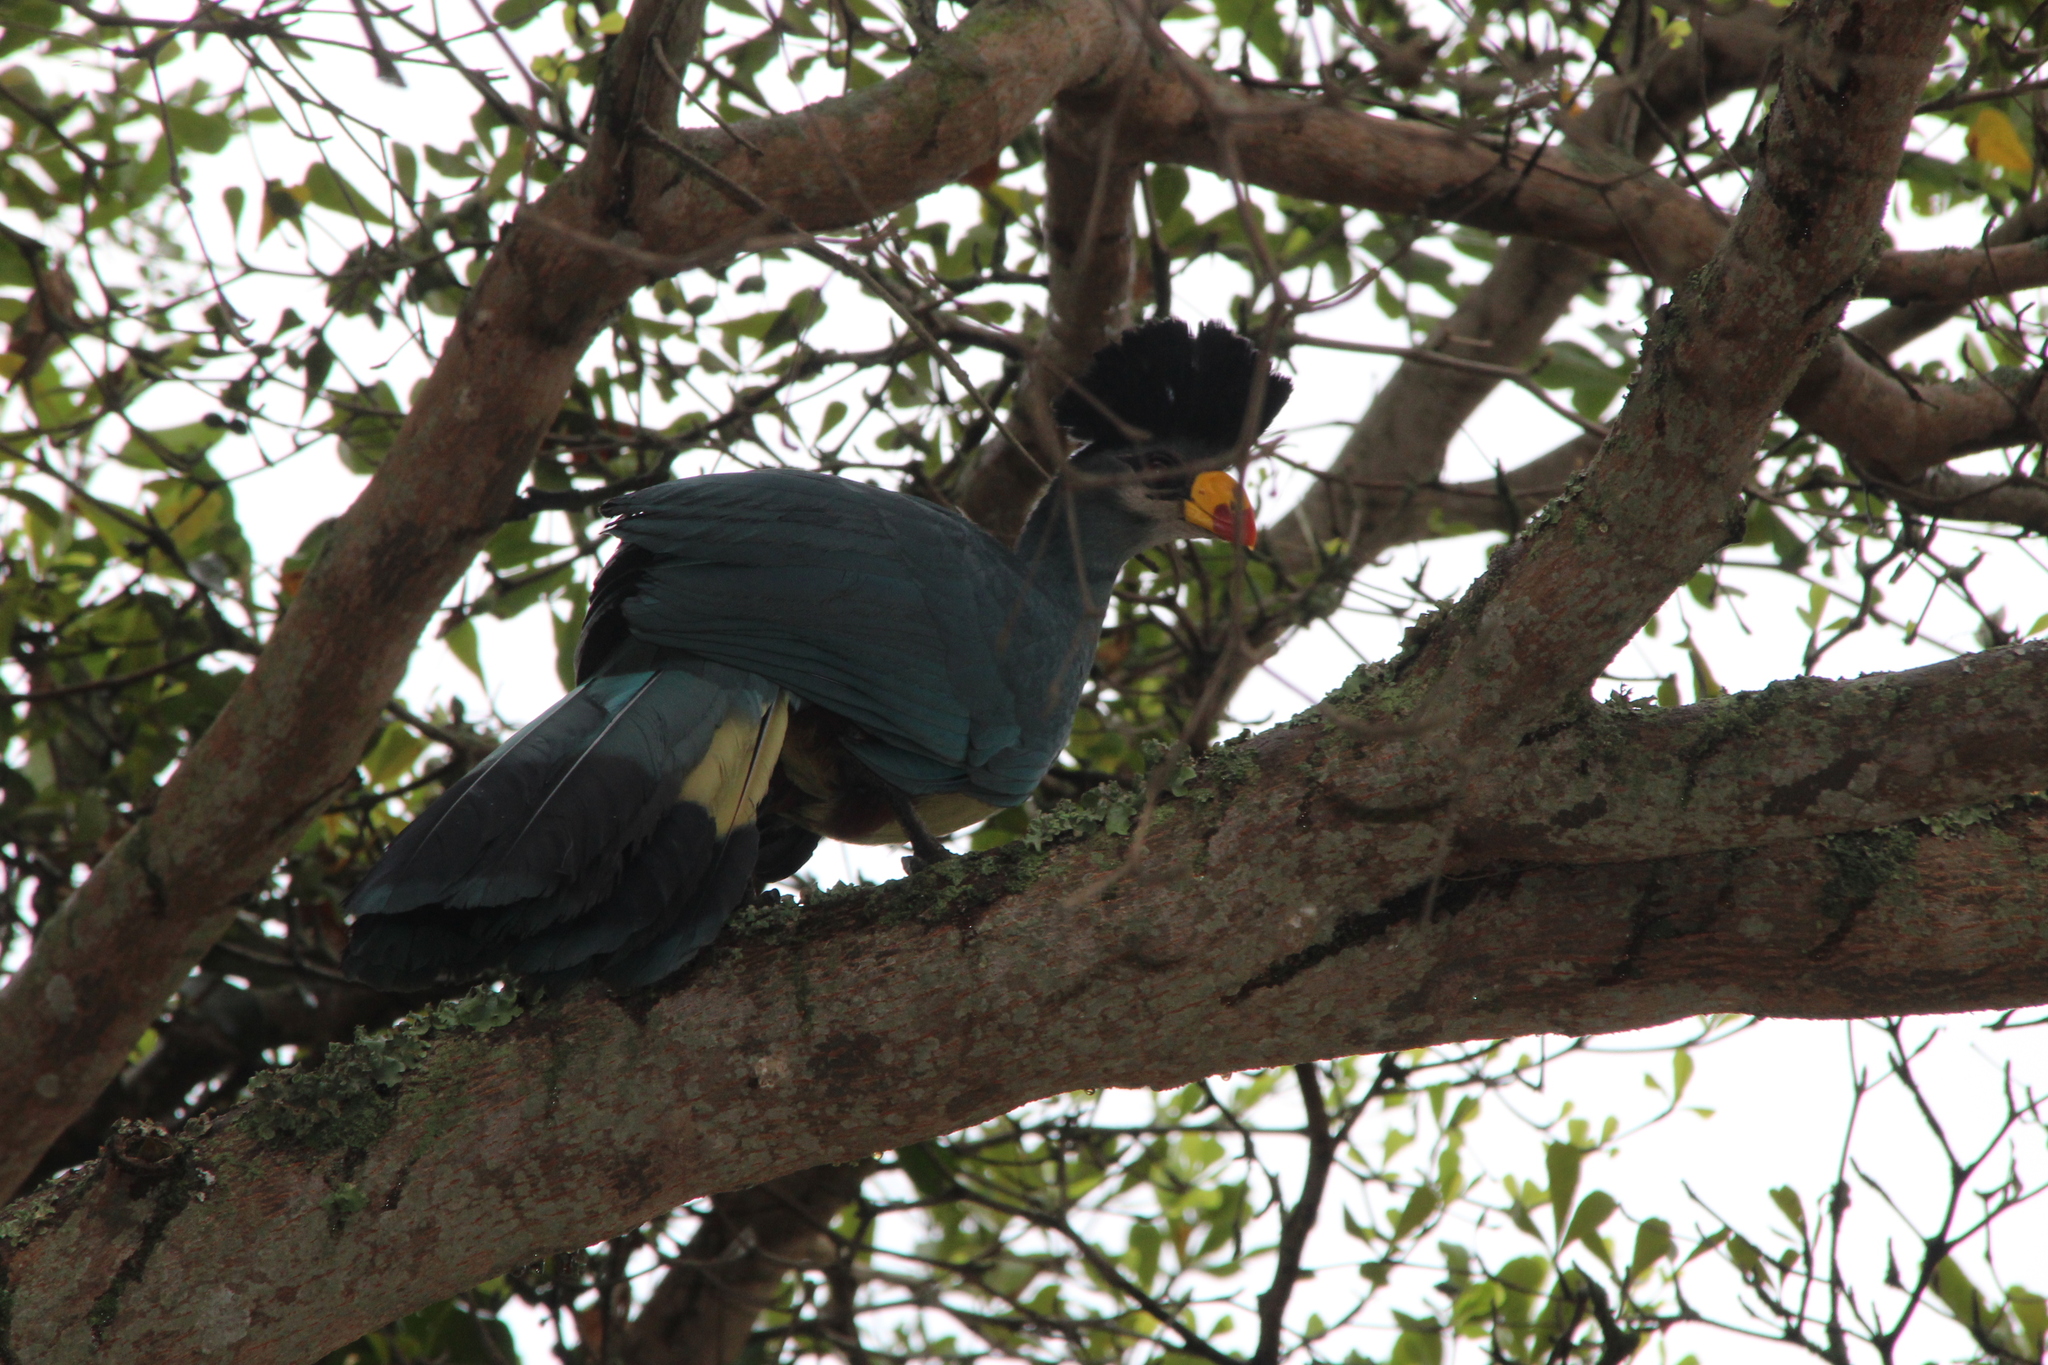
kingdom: Animalia
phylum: Chordata
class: Aves
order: Musophagiformes
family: Musophagidae
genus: Corythaeola
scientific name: Corythaeola cristata
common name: Great blue turaco
